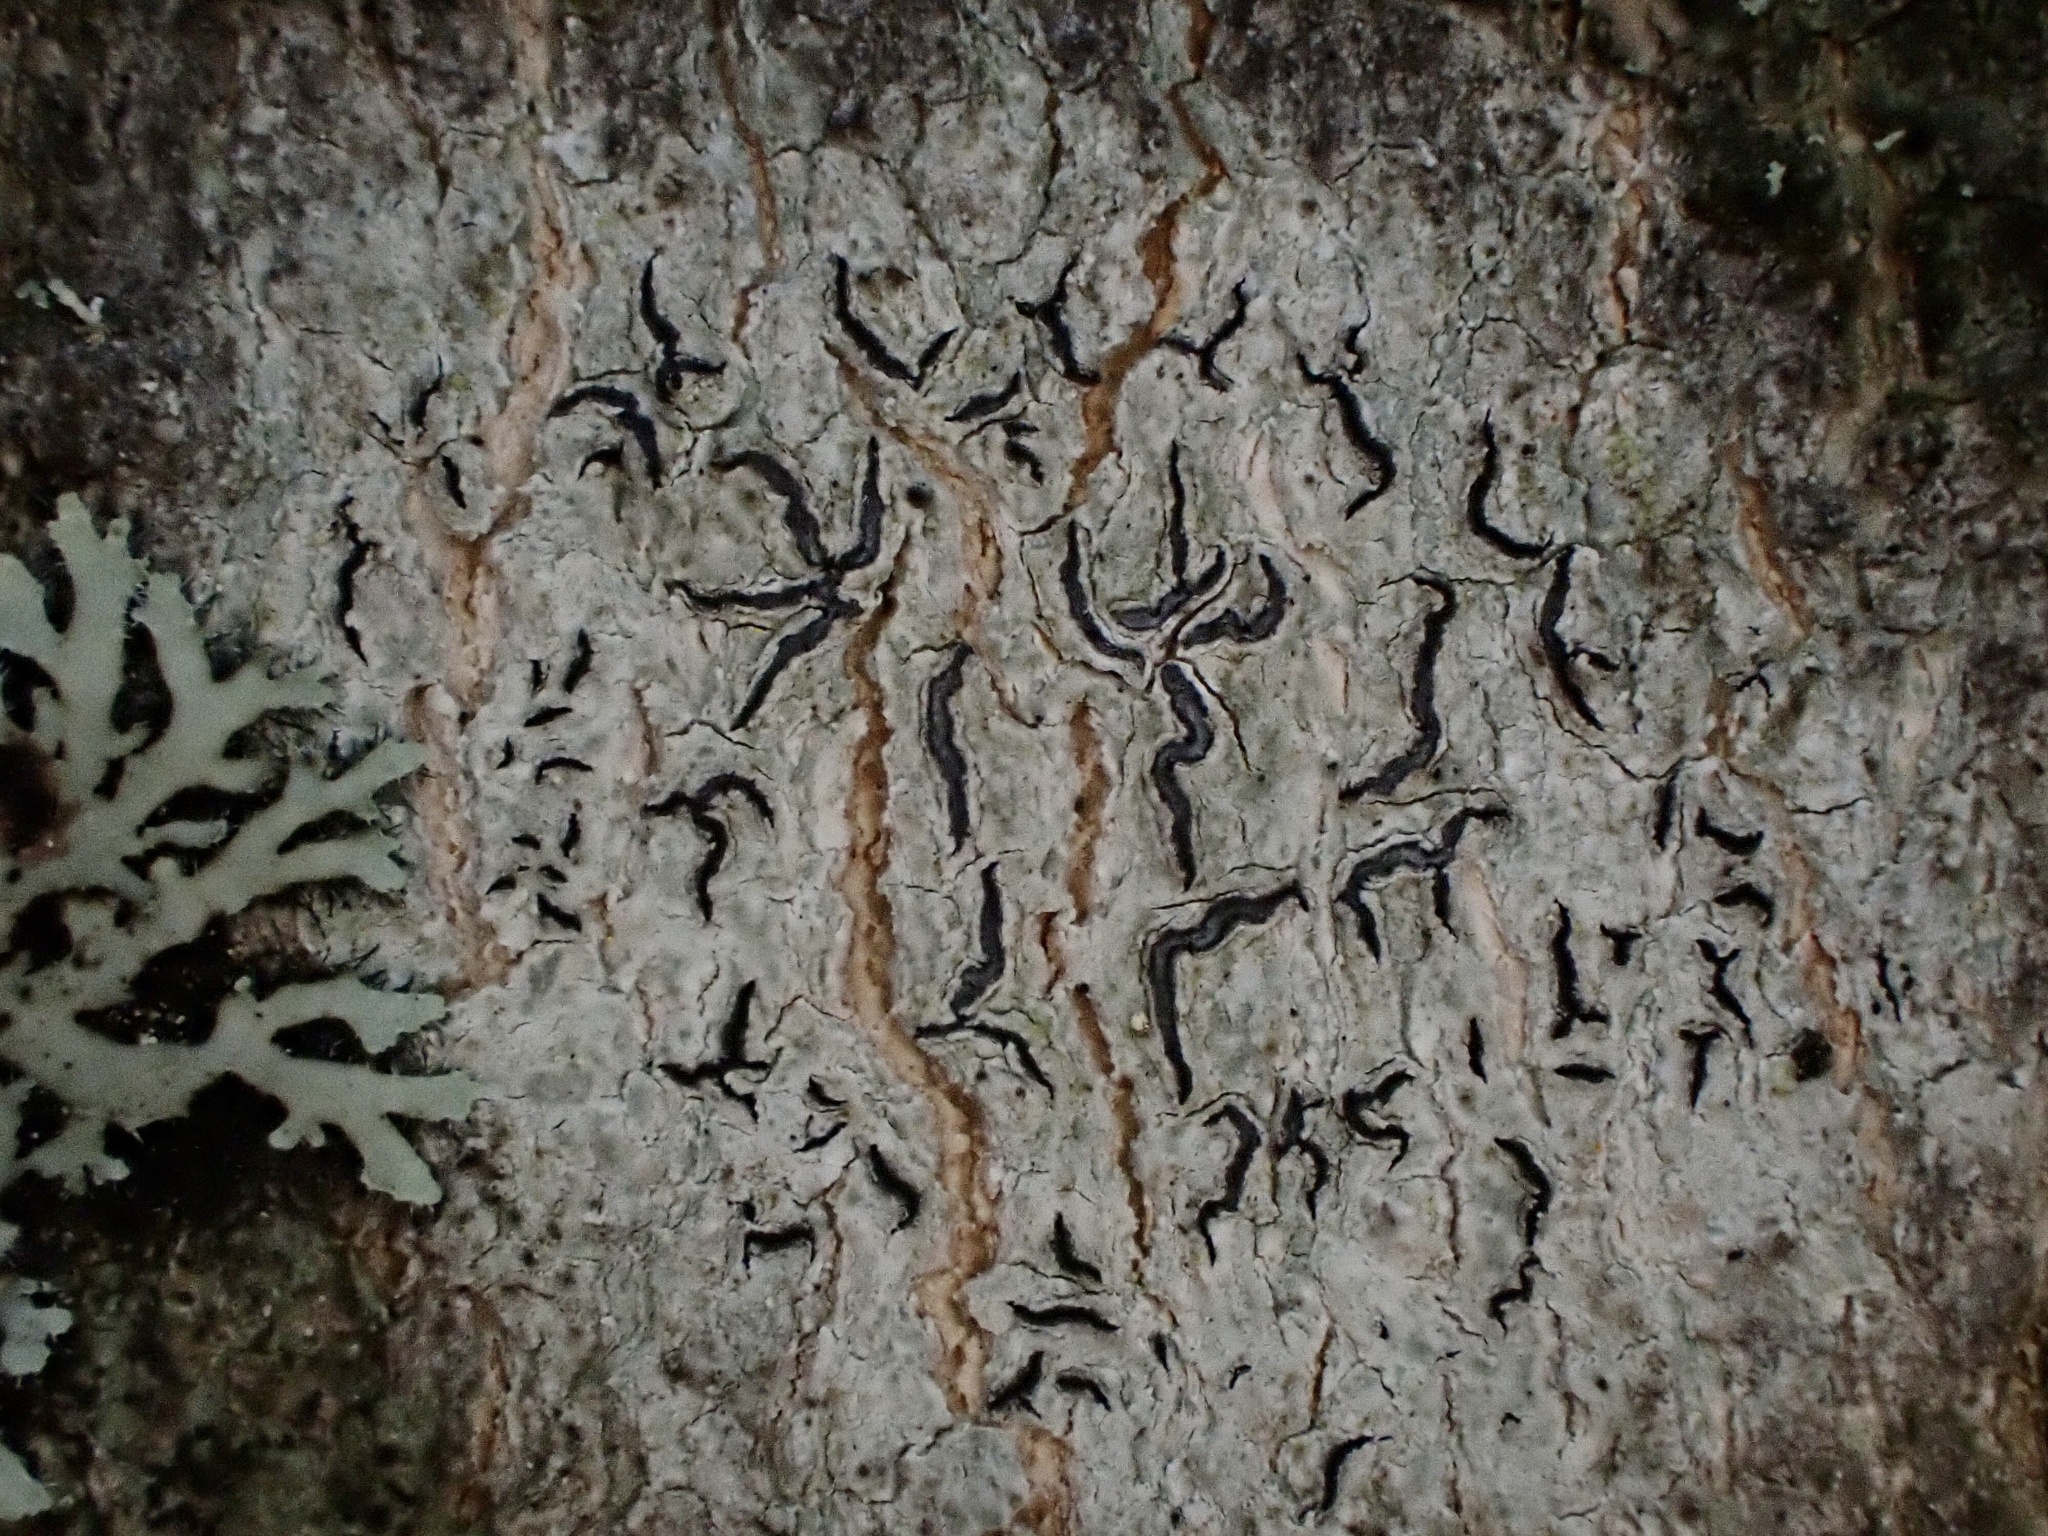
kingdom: Fungi
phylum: Ascomycota
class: Lecanoromycetes
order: Ostropales
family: Graphidaceae
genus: Graphis
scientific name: Graphis scripta
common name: Script lichen
